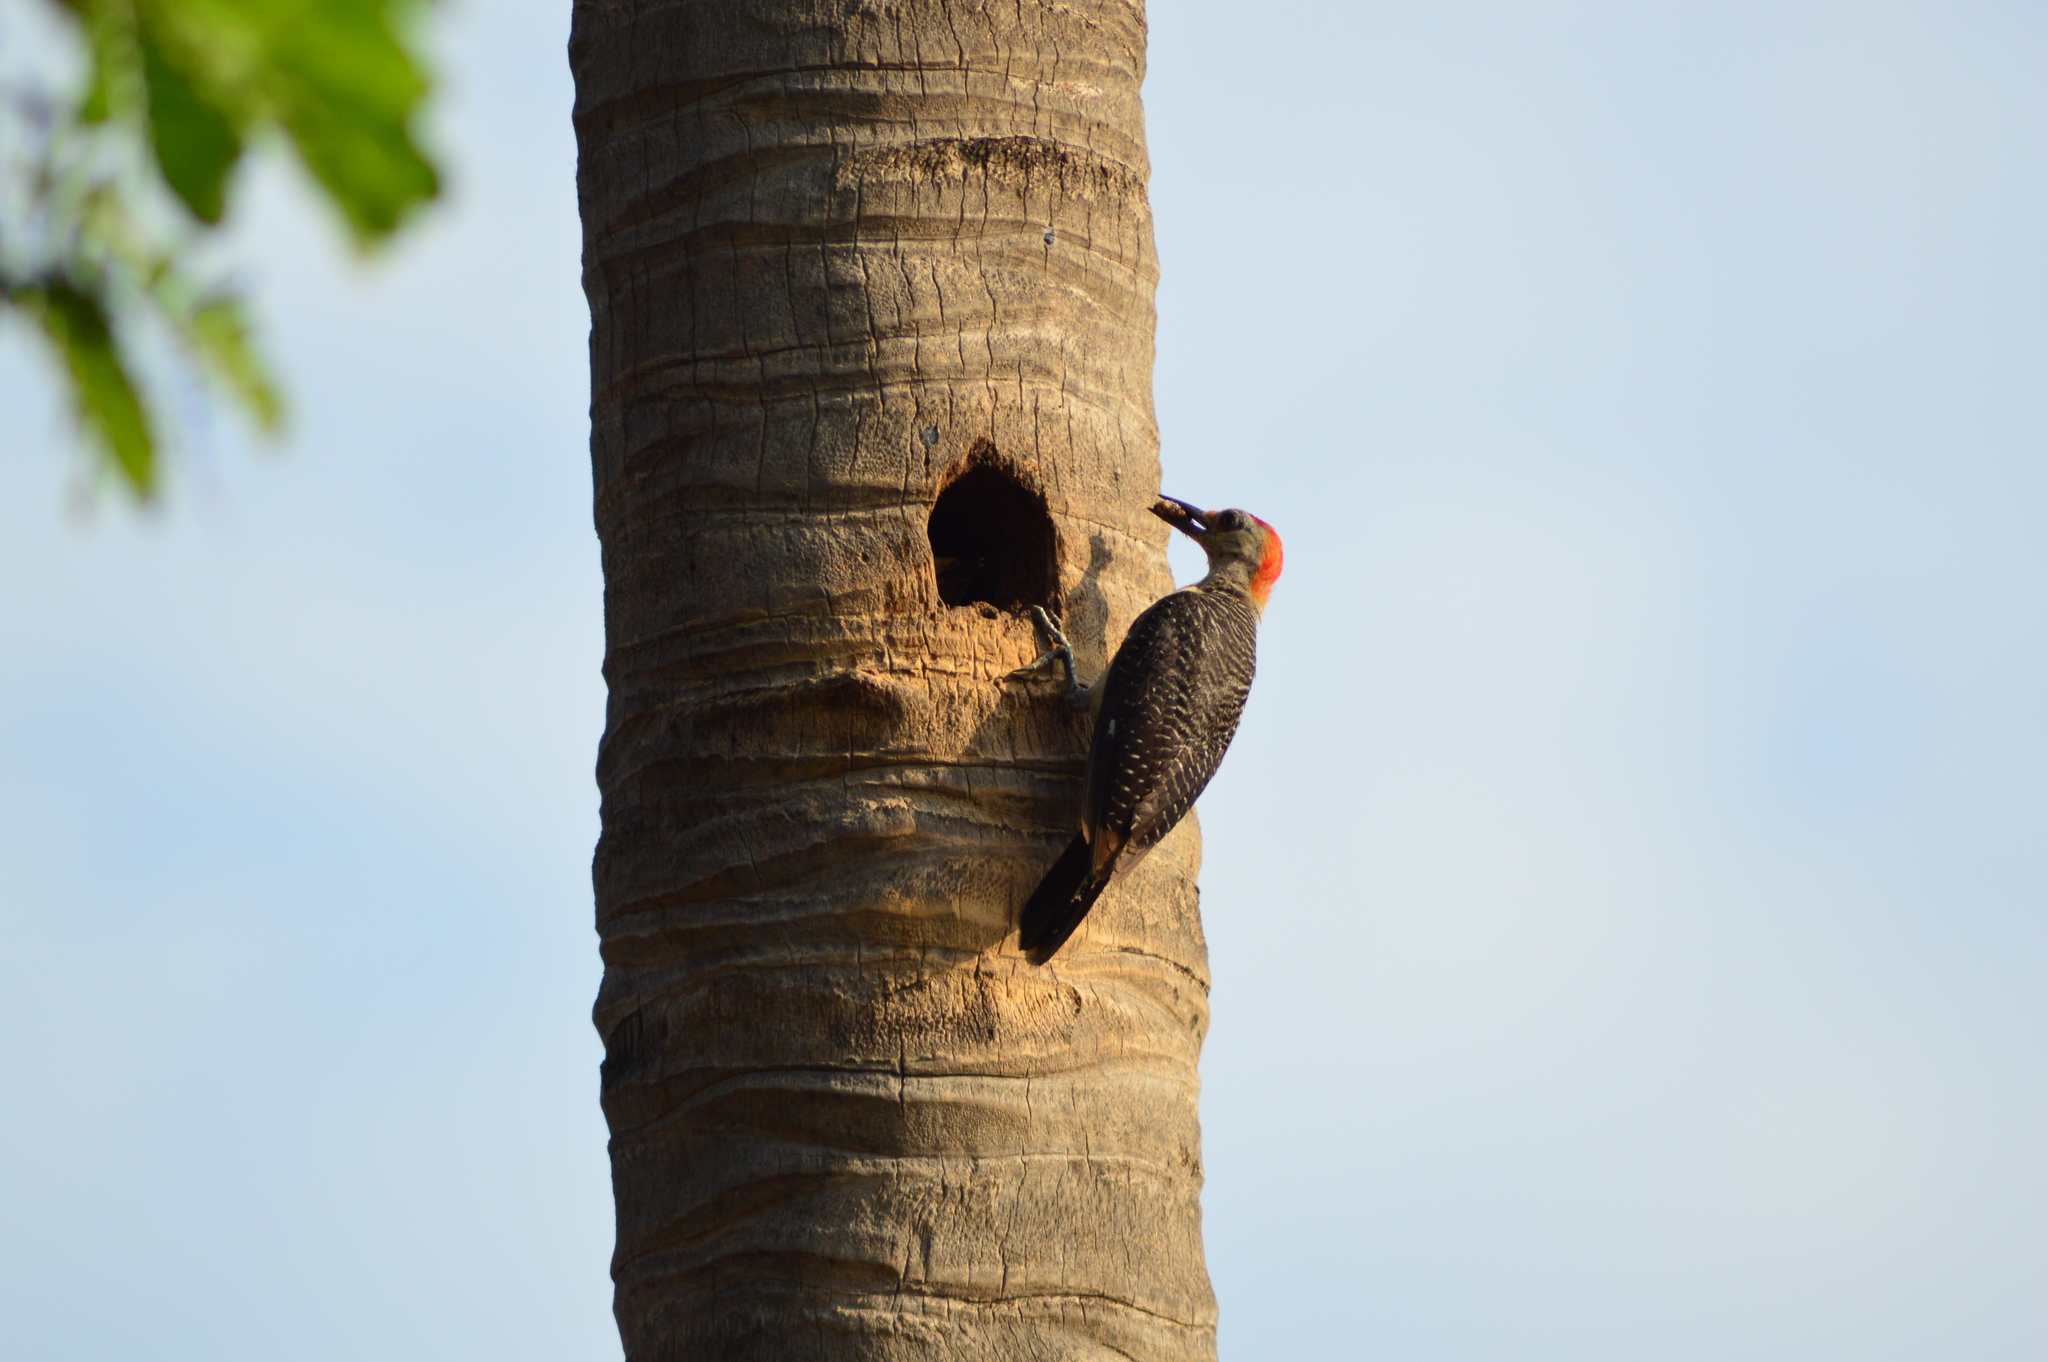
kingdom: Animalia
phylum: Chordata
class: Aves
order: Piciformes
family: Picidae
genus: Melanerpes
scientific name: Melanerpes aurifrons
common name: Golden-fronted woodpecker
